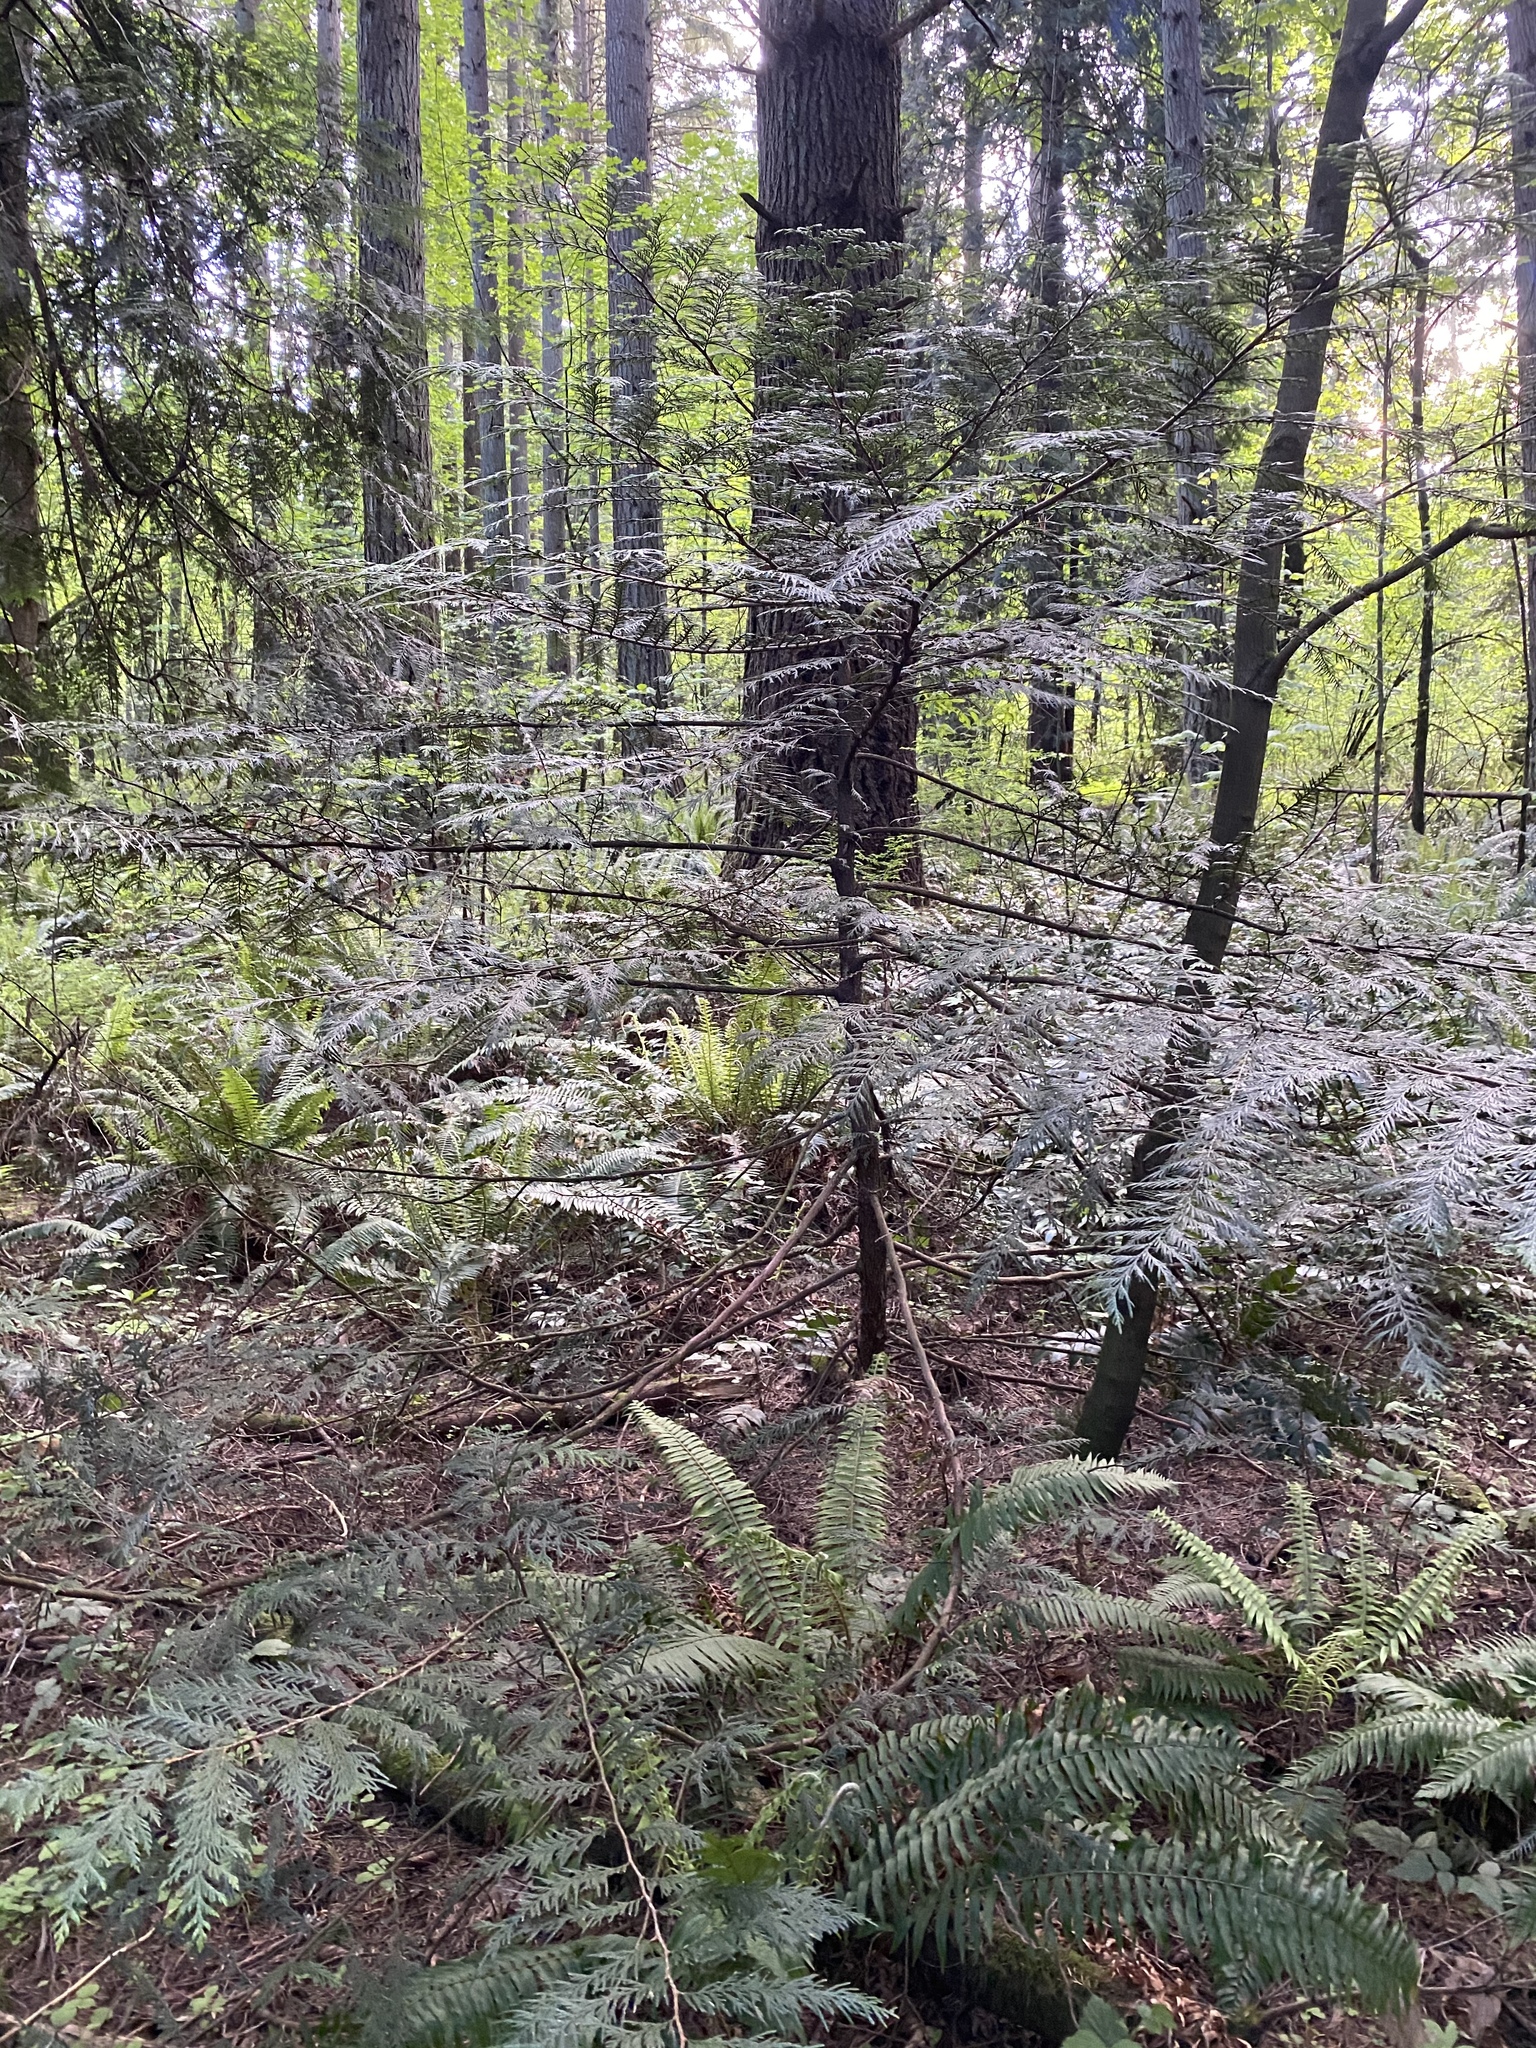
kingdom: Plantae
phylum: Tracheophyta
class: Pinopsida
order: Pinales
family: Cupressaceae
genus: Thuja
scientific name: Thuja plicata
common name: Western red-cedar
